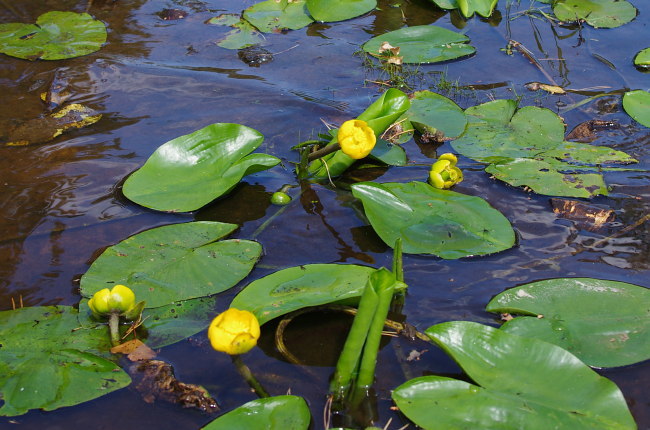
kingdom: Plantae
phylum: Tracheophyta
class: Magnoliopsida
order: Nymphaeales
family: Nymphaeaceae
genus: Nuphar
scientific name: Nuphar lutea
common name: Yellow water-lily
